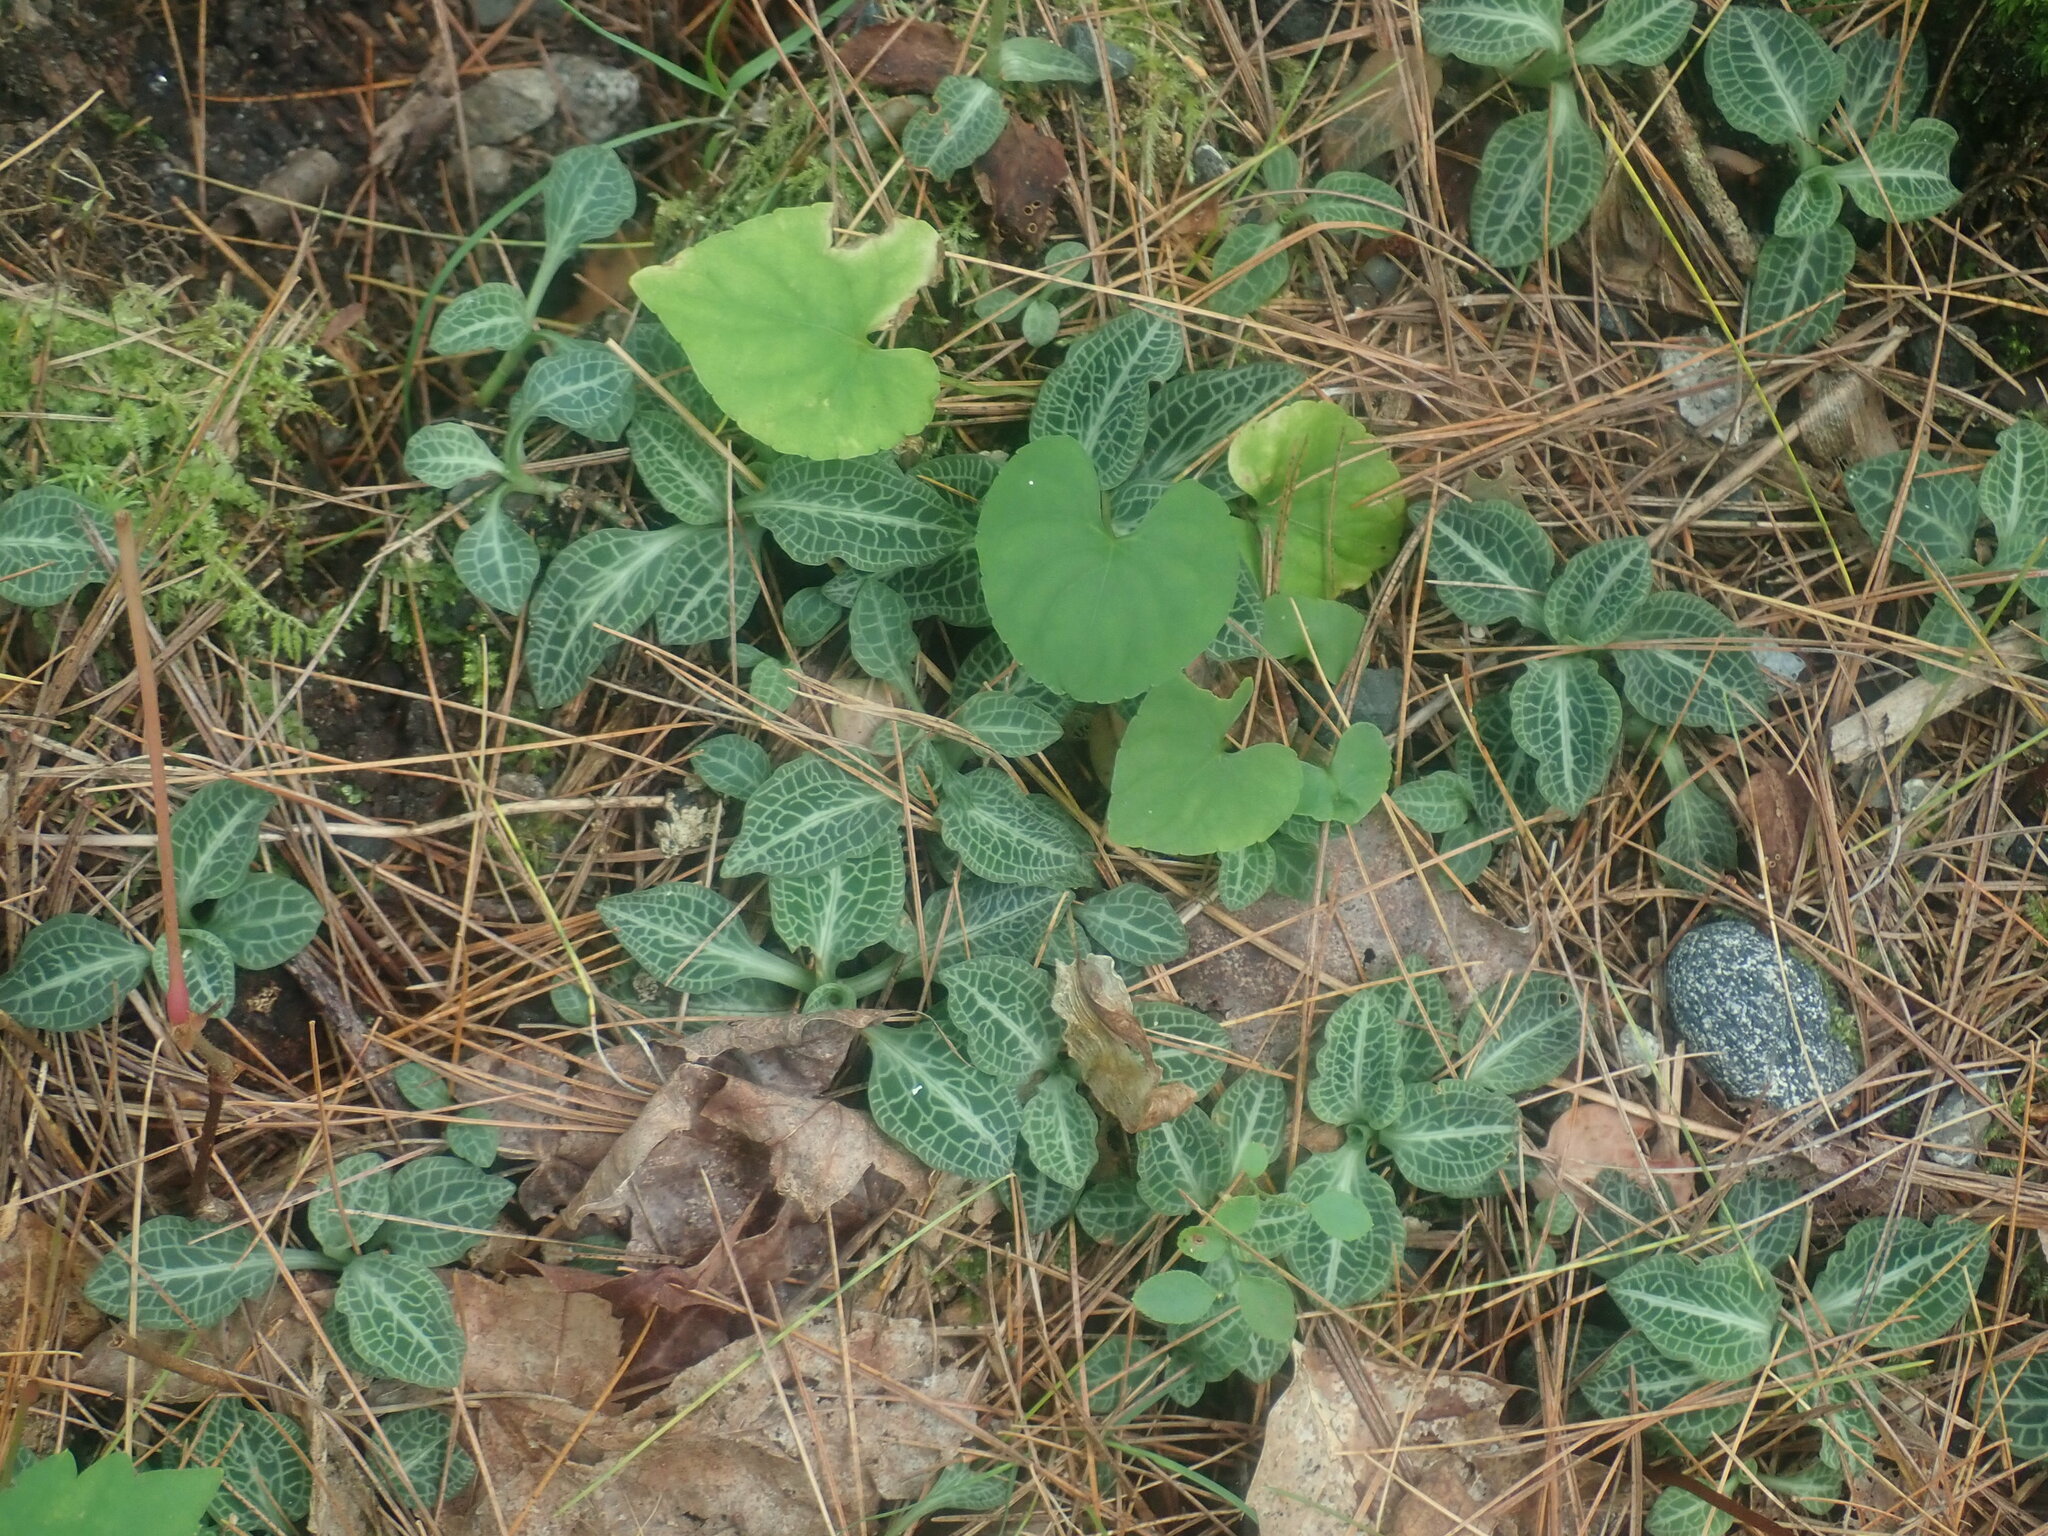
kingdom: Plantae
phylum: Tracheophyta
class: Liliopsida
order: Asparagales
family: Orchidaceae
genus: Goodyera
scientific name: Goodyera pubescens
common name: Downy rattlesnake-plantain
